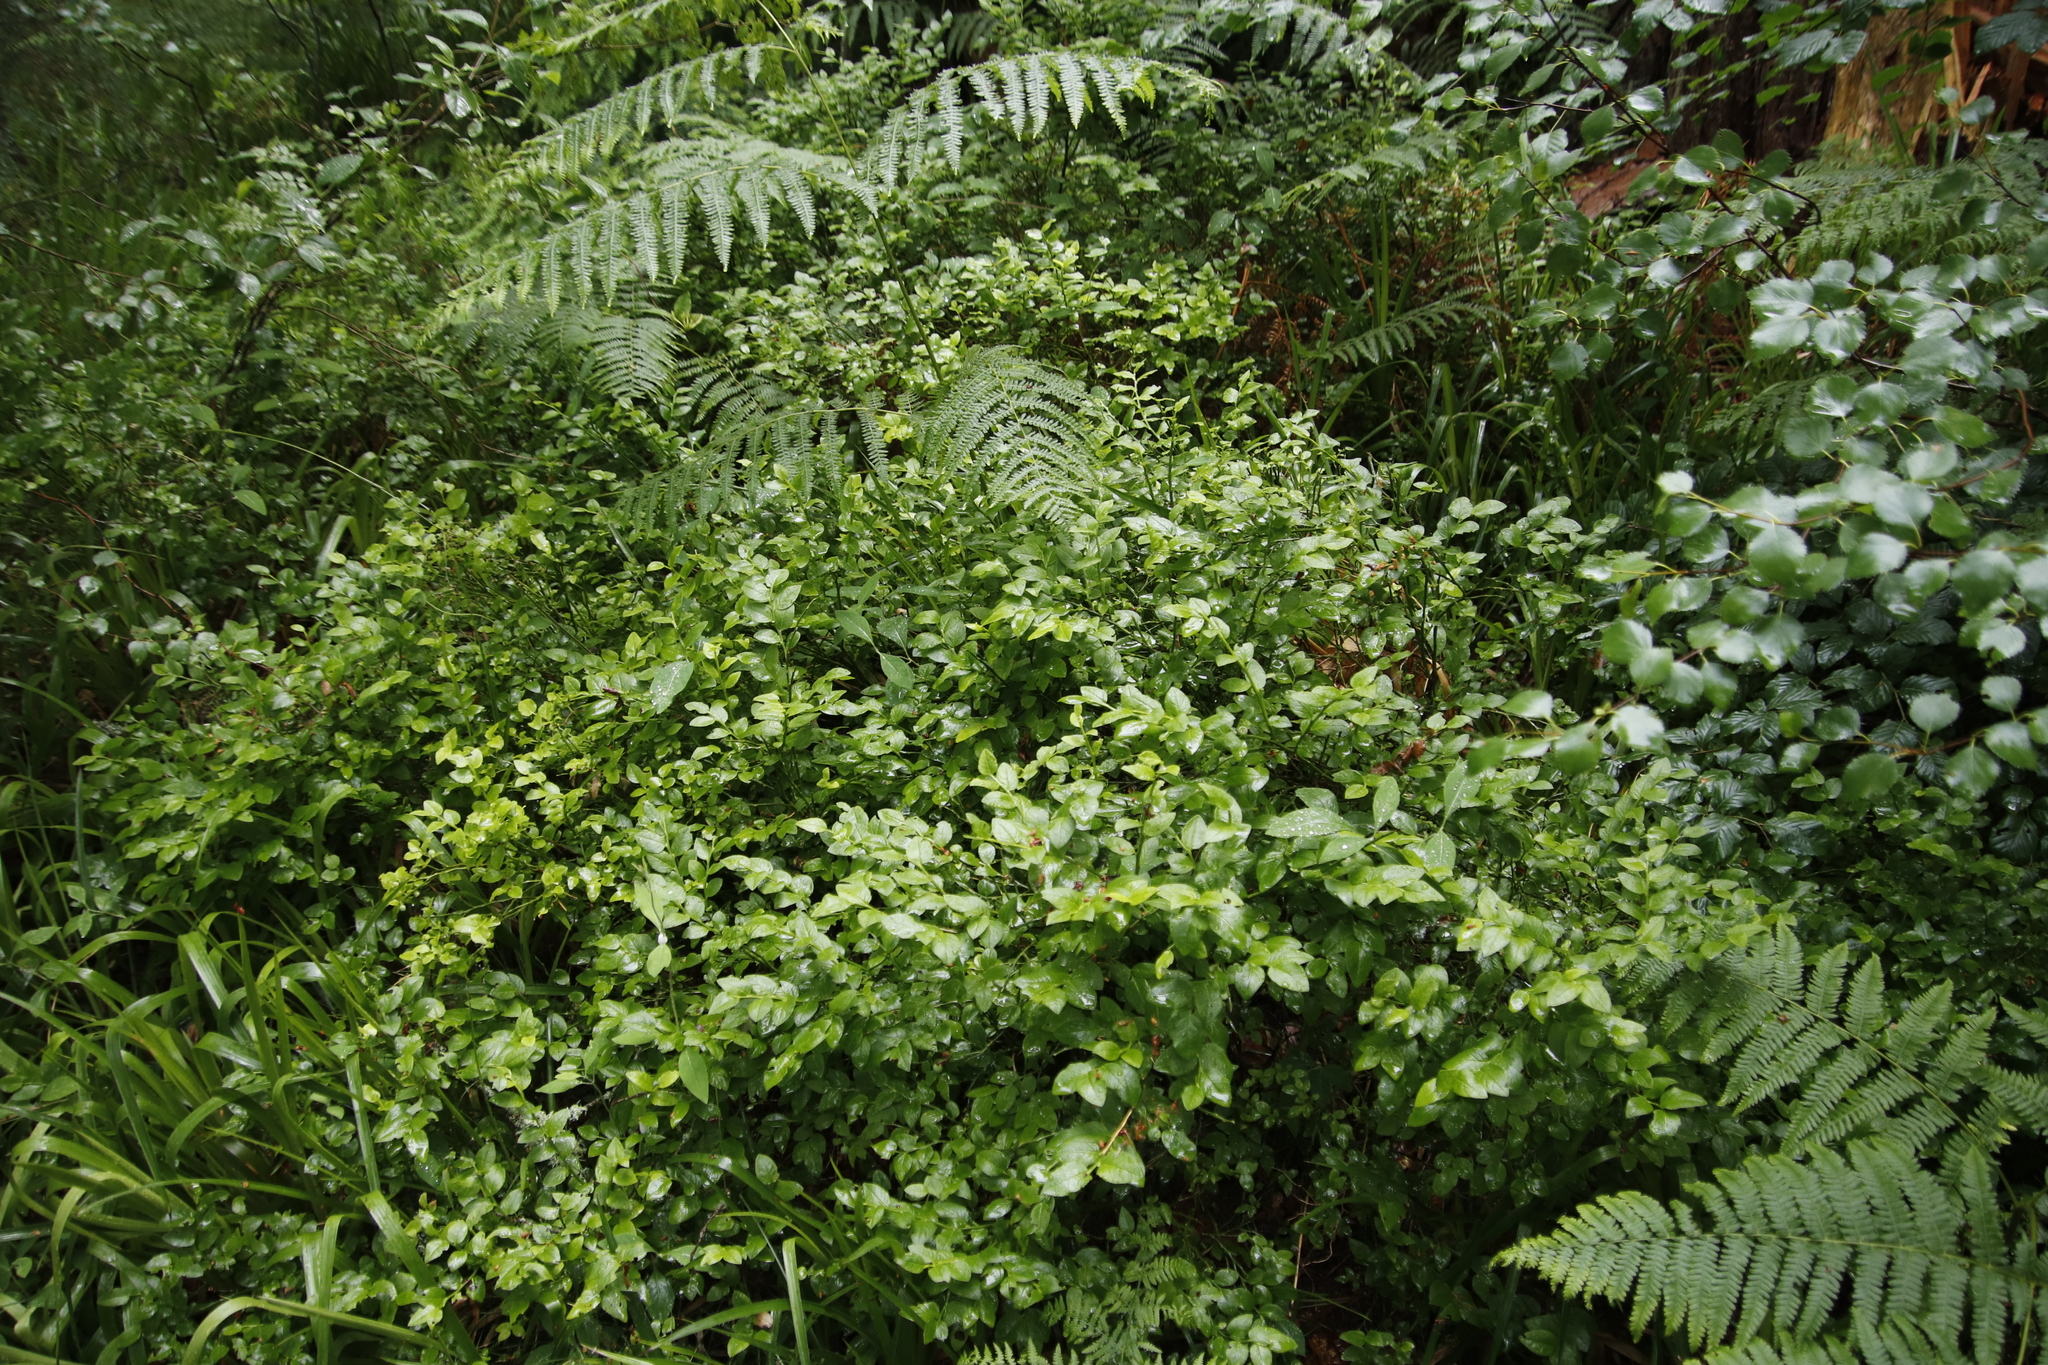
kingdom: Plantae
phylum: Tracheophyta
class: Magnoliopsida
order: Ericales
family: Ericaceae
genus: Vaccinium
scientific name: Vaccinium myrtillus
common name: Bilberry
